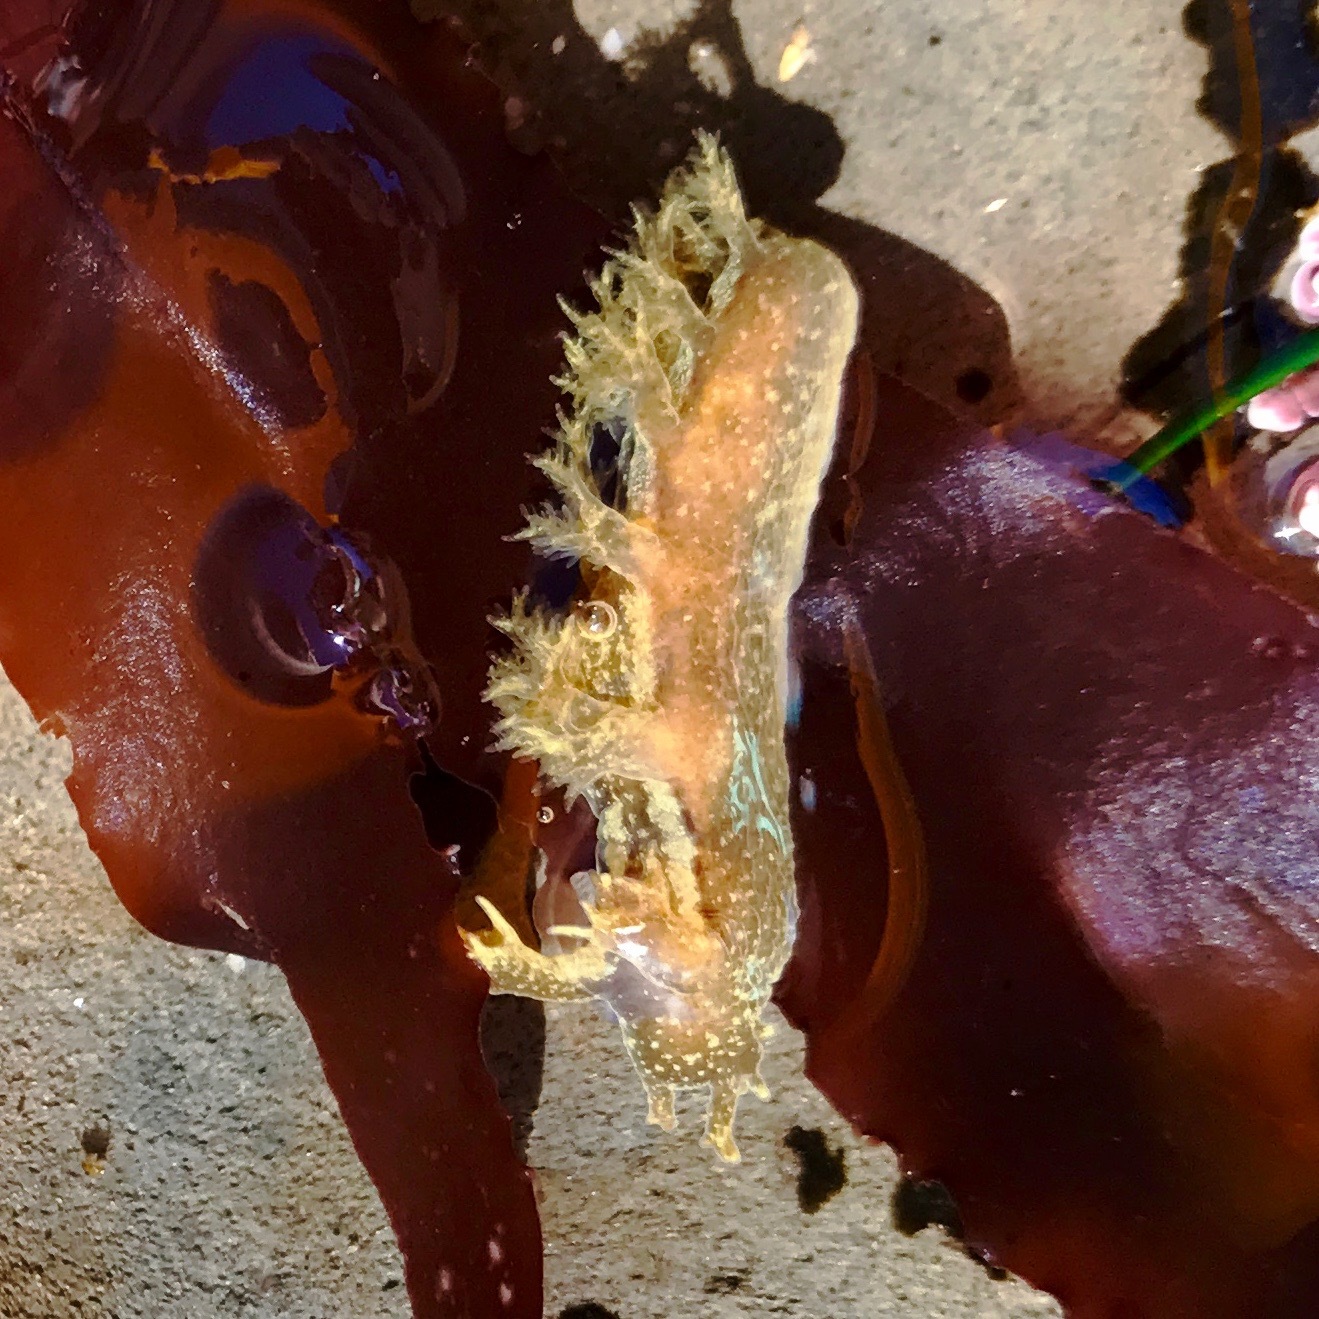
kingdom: Animalia
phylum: Mollusca
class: Gastropoda
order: Nudibranchia
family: Dendronotidae
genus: Dendronotus
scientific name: Dendronotus subramosus
